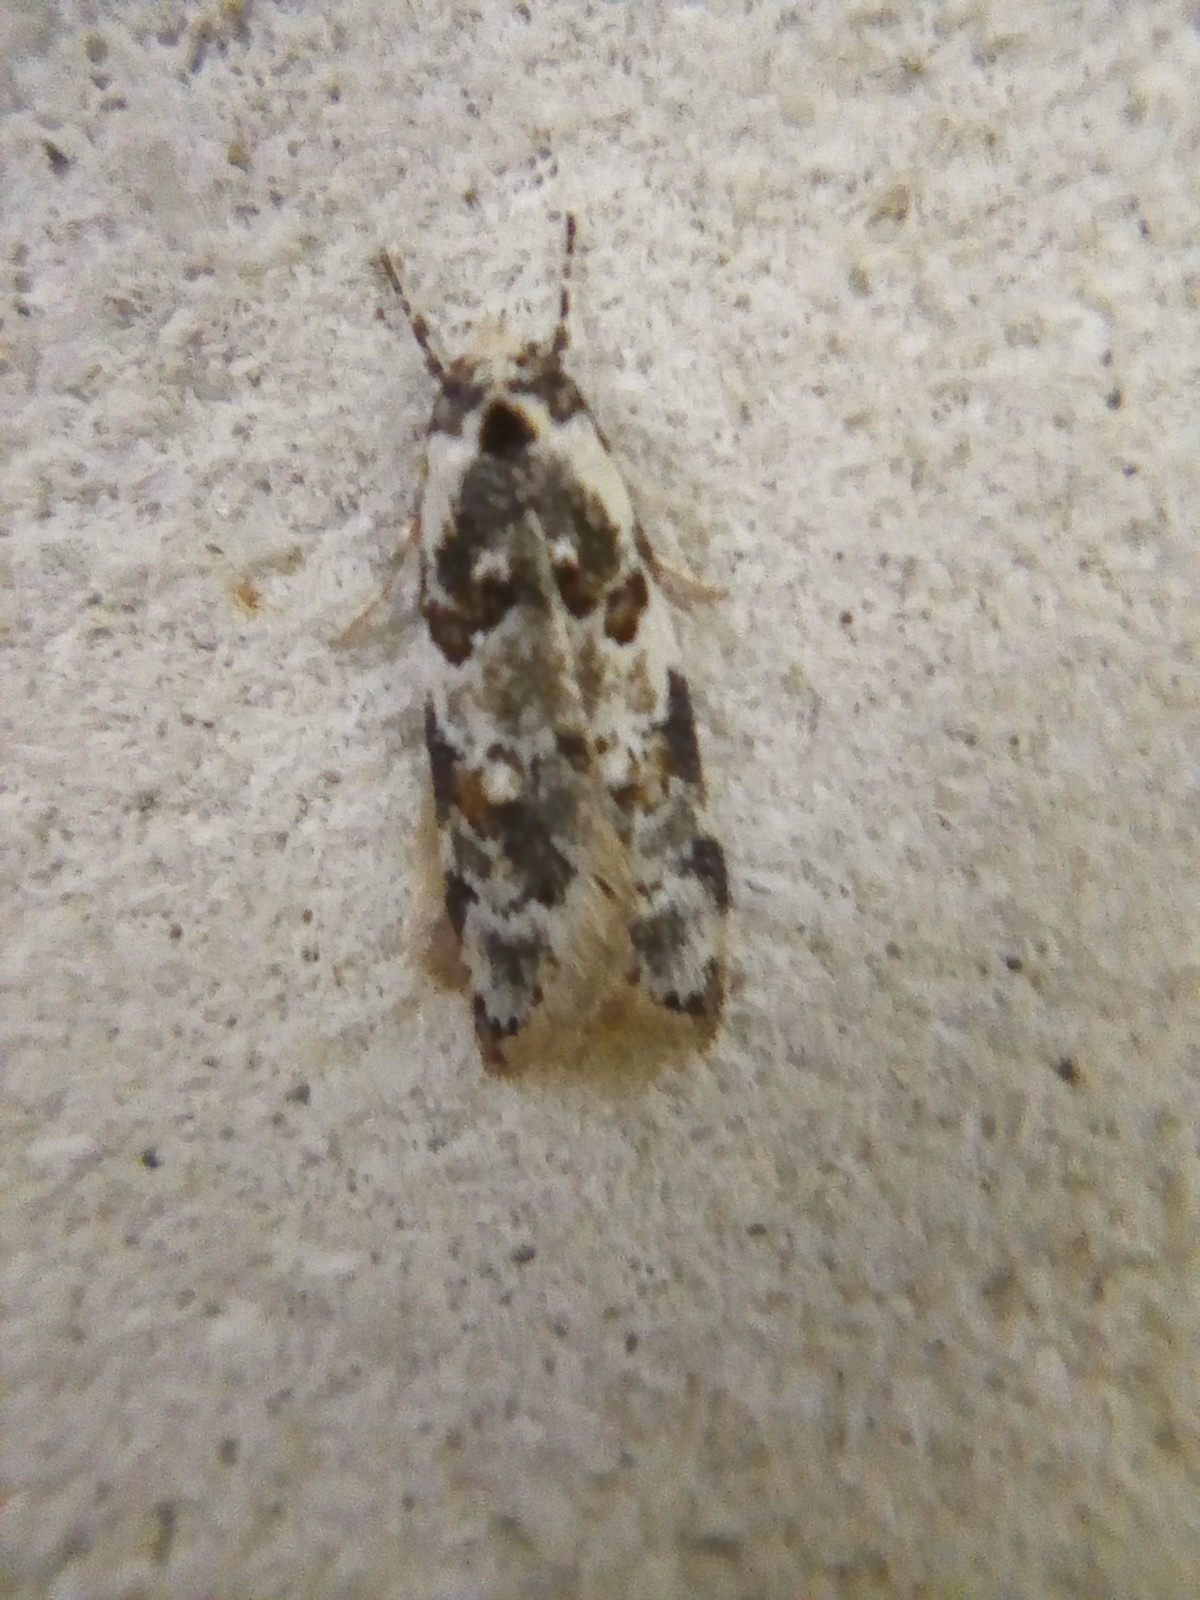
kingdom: Animalia
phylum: Arthropoda
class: Insecta
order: Lepidoptera
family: Oecophoridae
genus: Trachypepla
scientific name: Trachypepla galaxias
